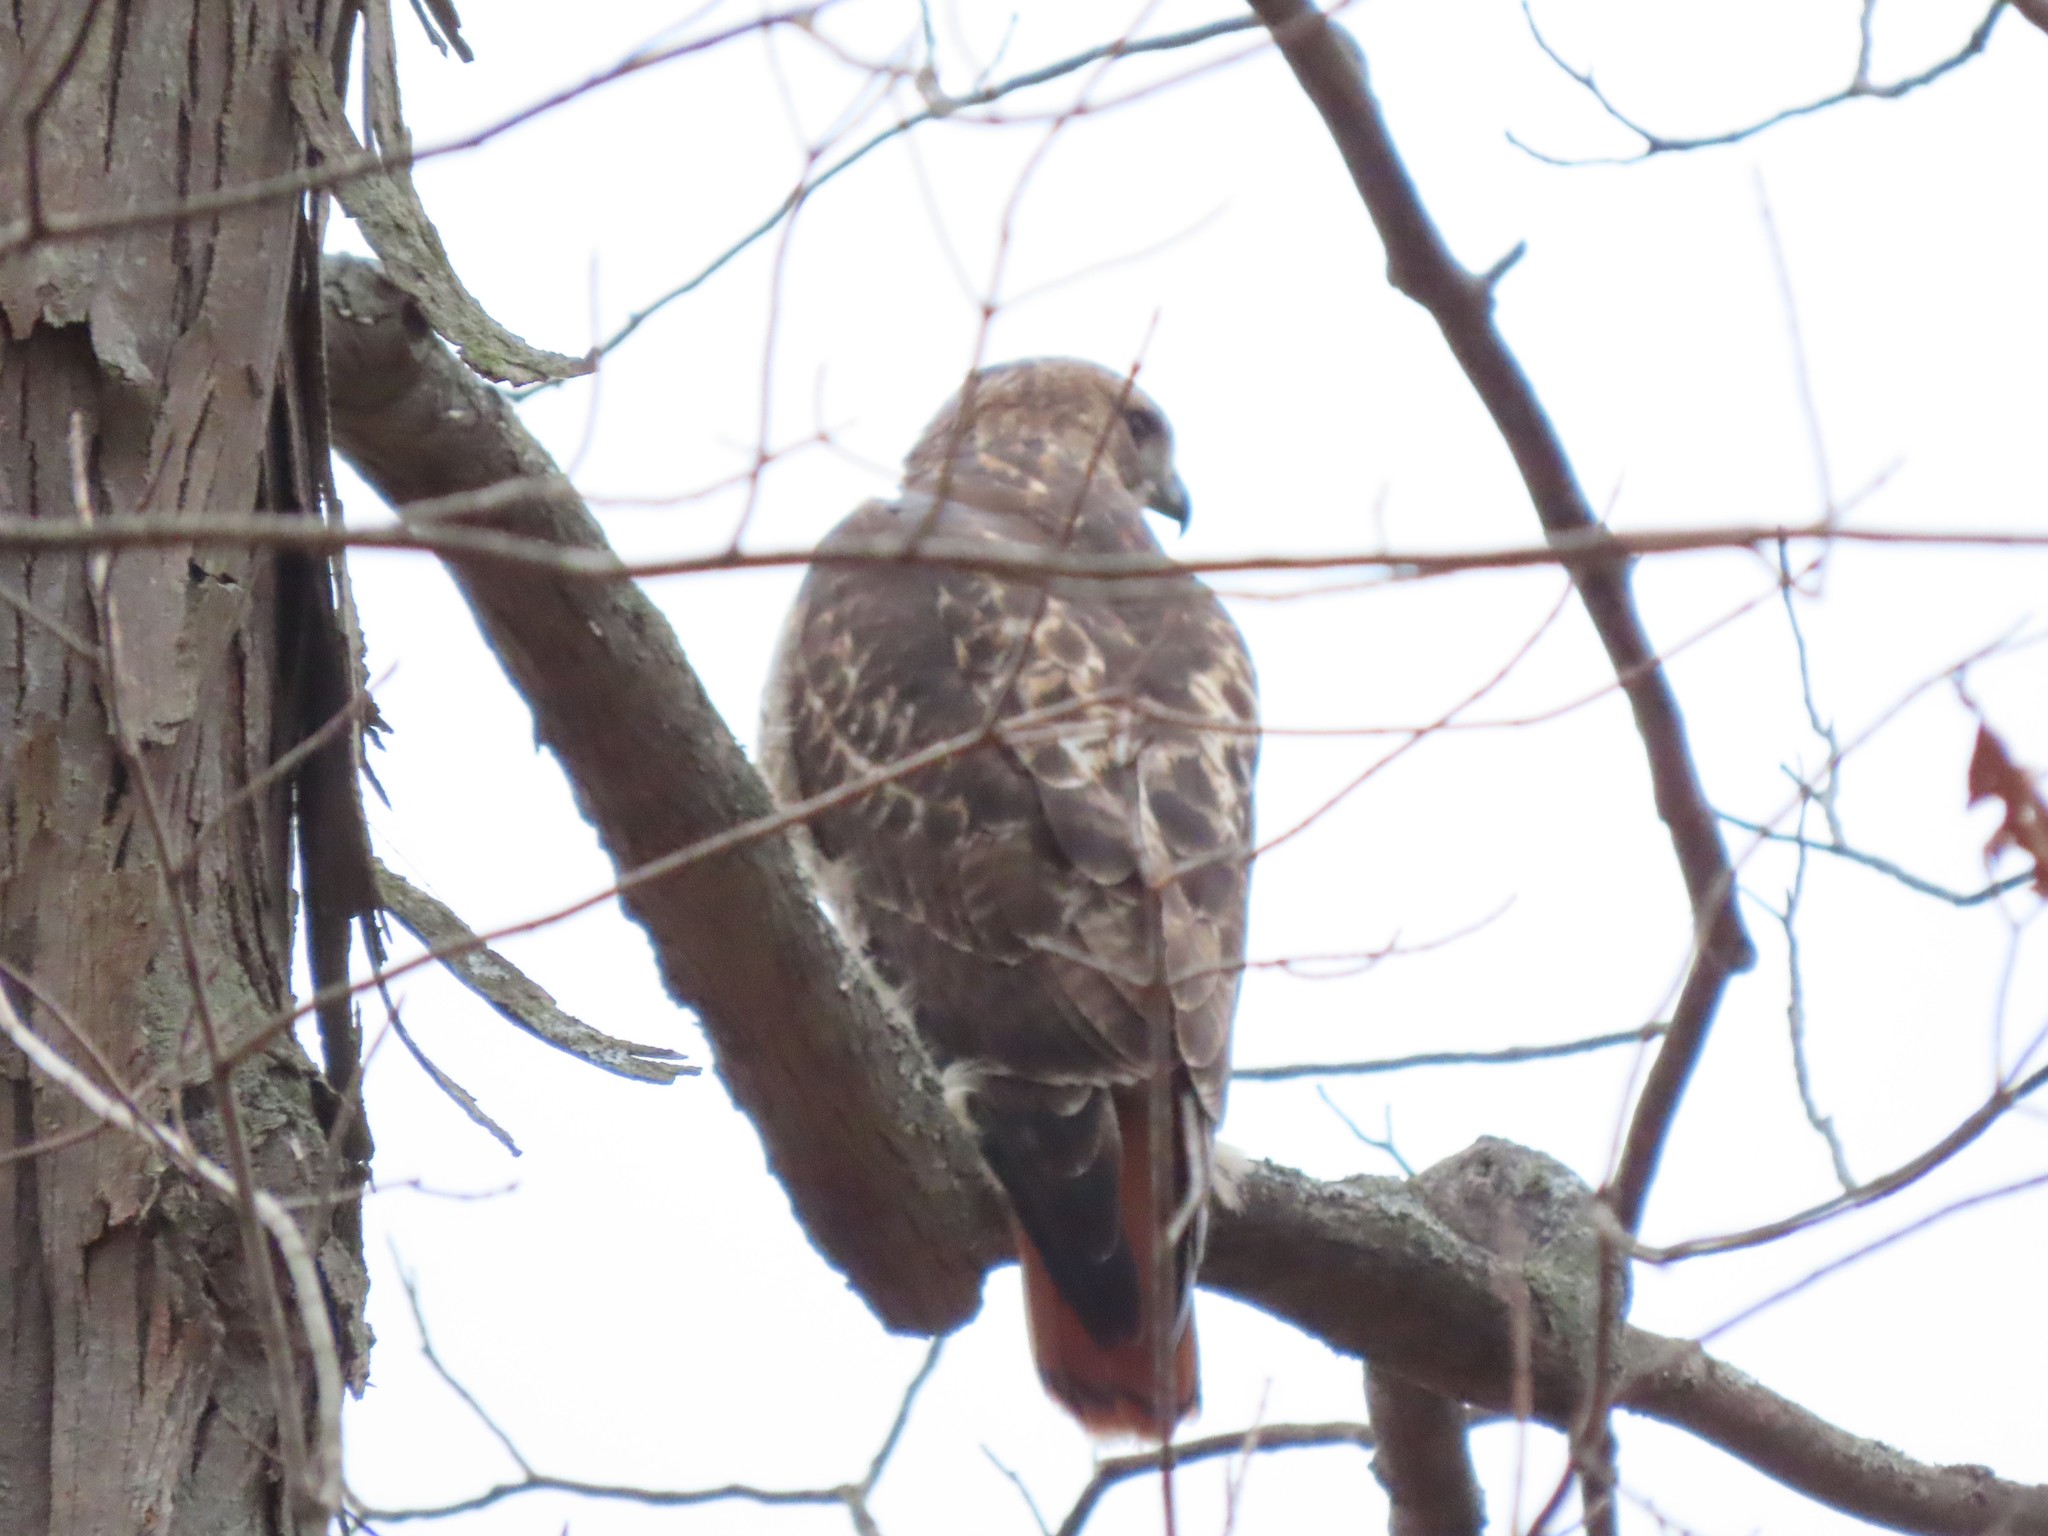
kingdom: Animalia
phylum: Chordata
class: Aves
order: Accipitriformes
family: Accipitridae
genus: Buteo
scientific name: Buteo jamaicensis
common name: Red-tailed hawk
